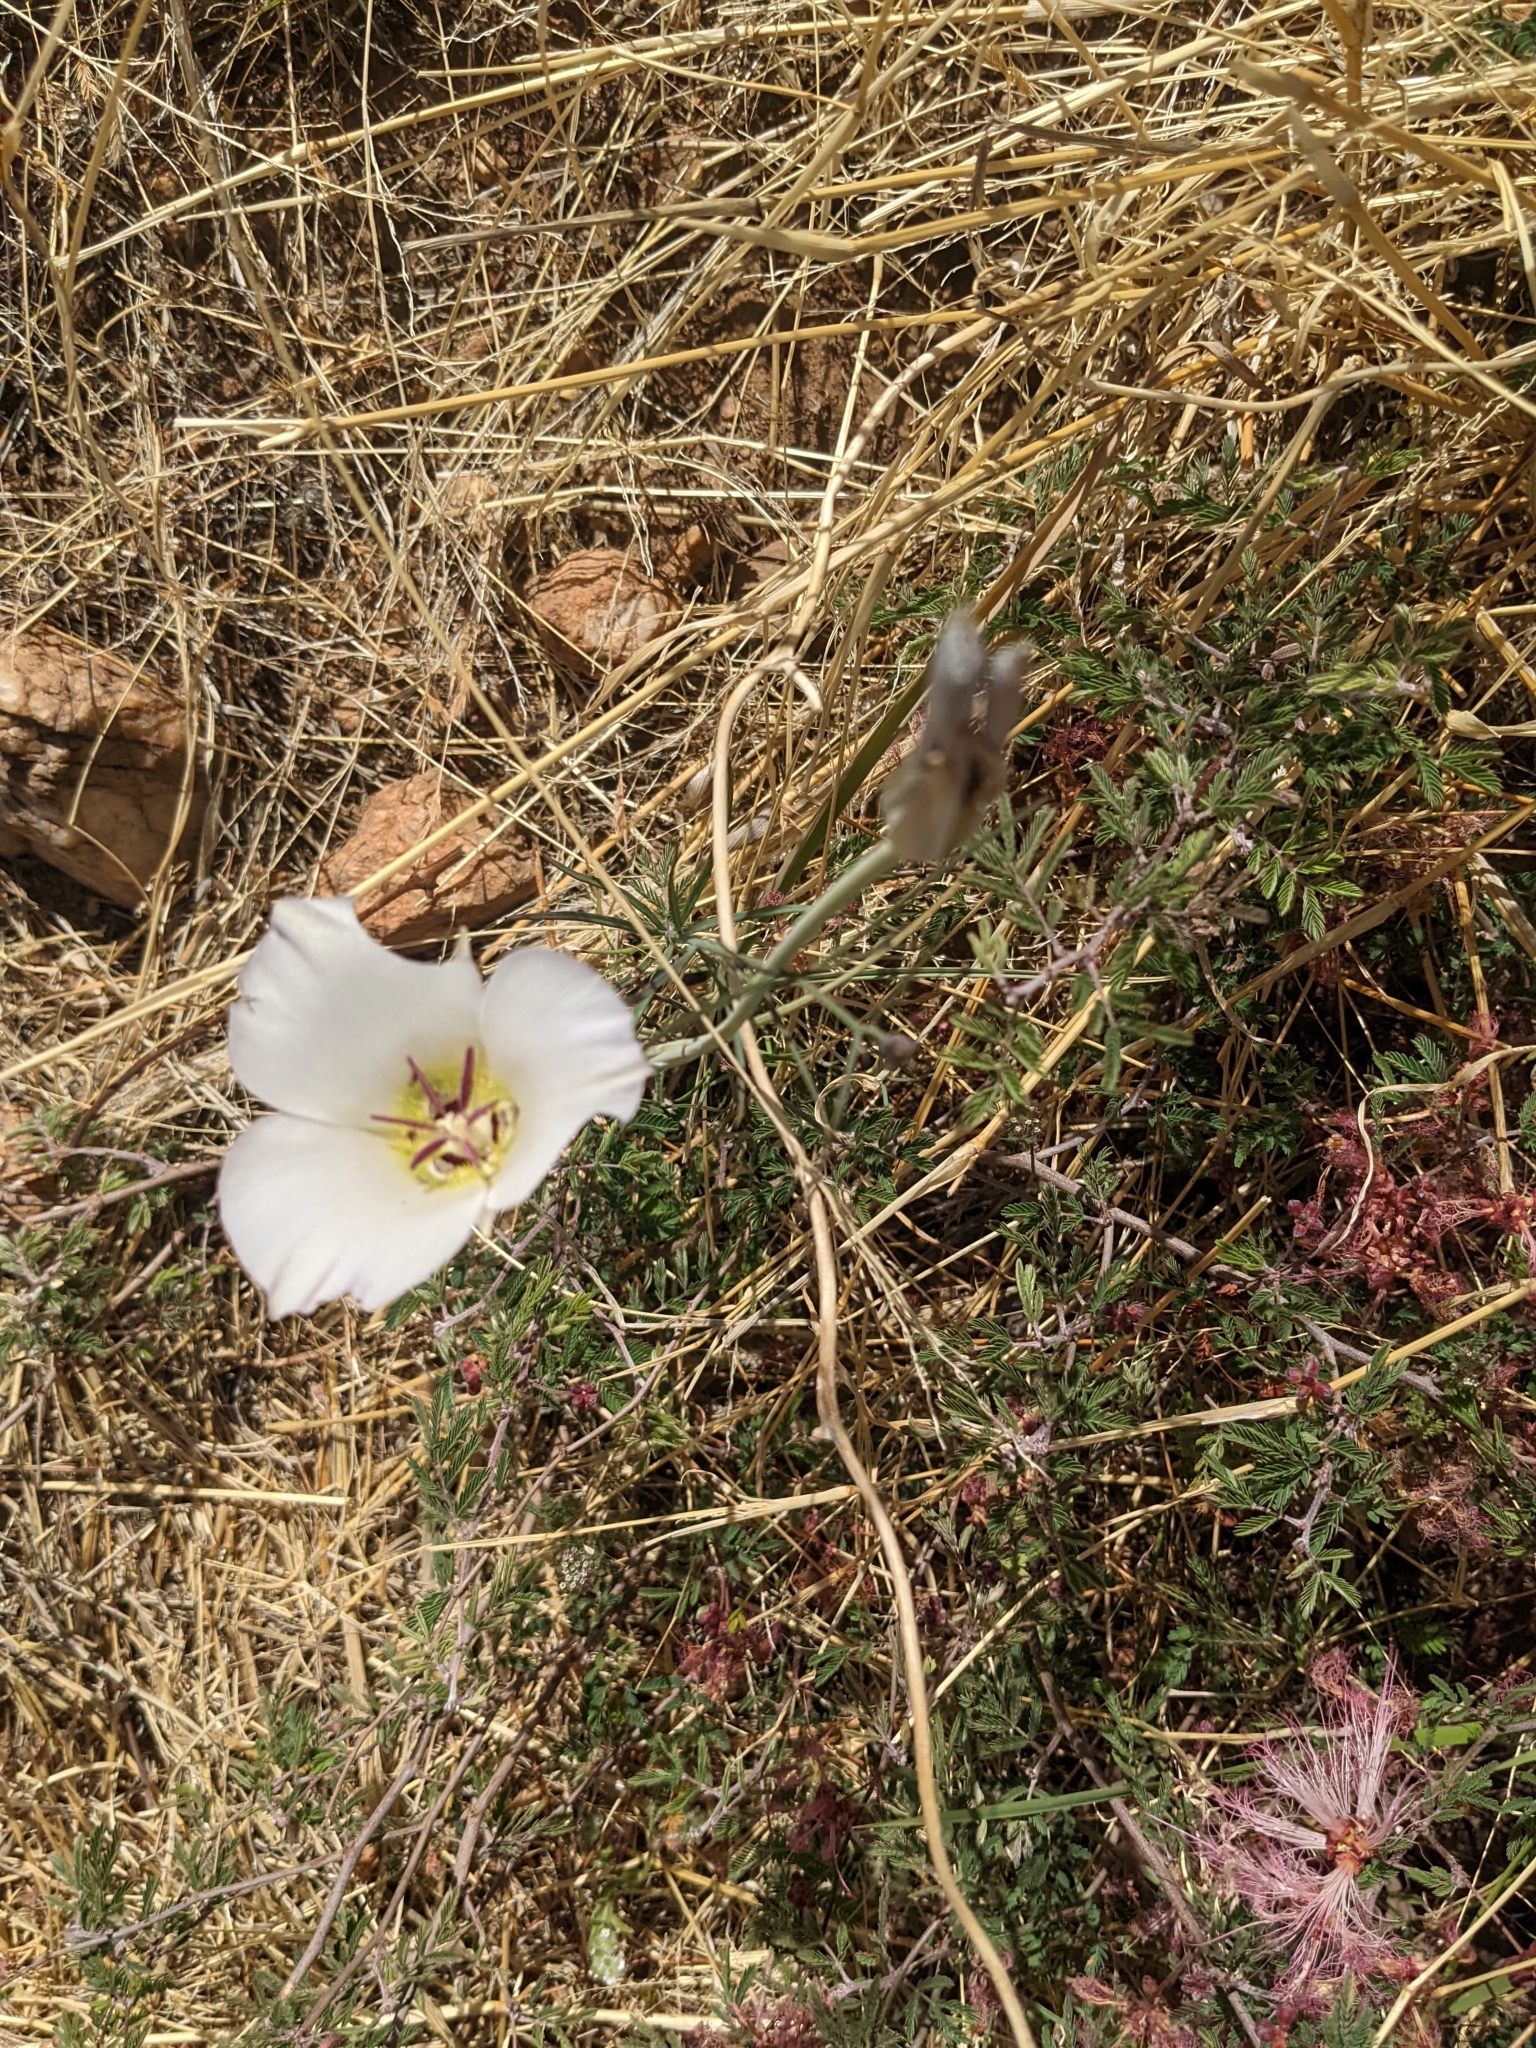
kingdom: Plantae
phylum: Tracheophyta
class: Liliopsida
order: Liliales
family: Liliaceae
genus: Calochortus
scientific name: Calochortus ambiguus
